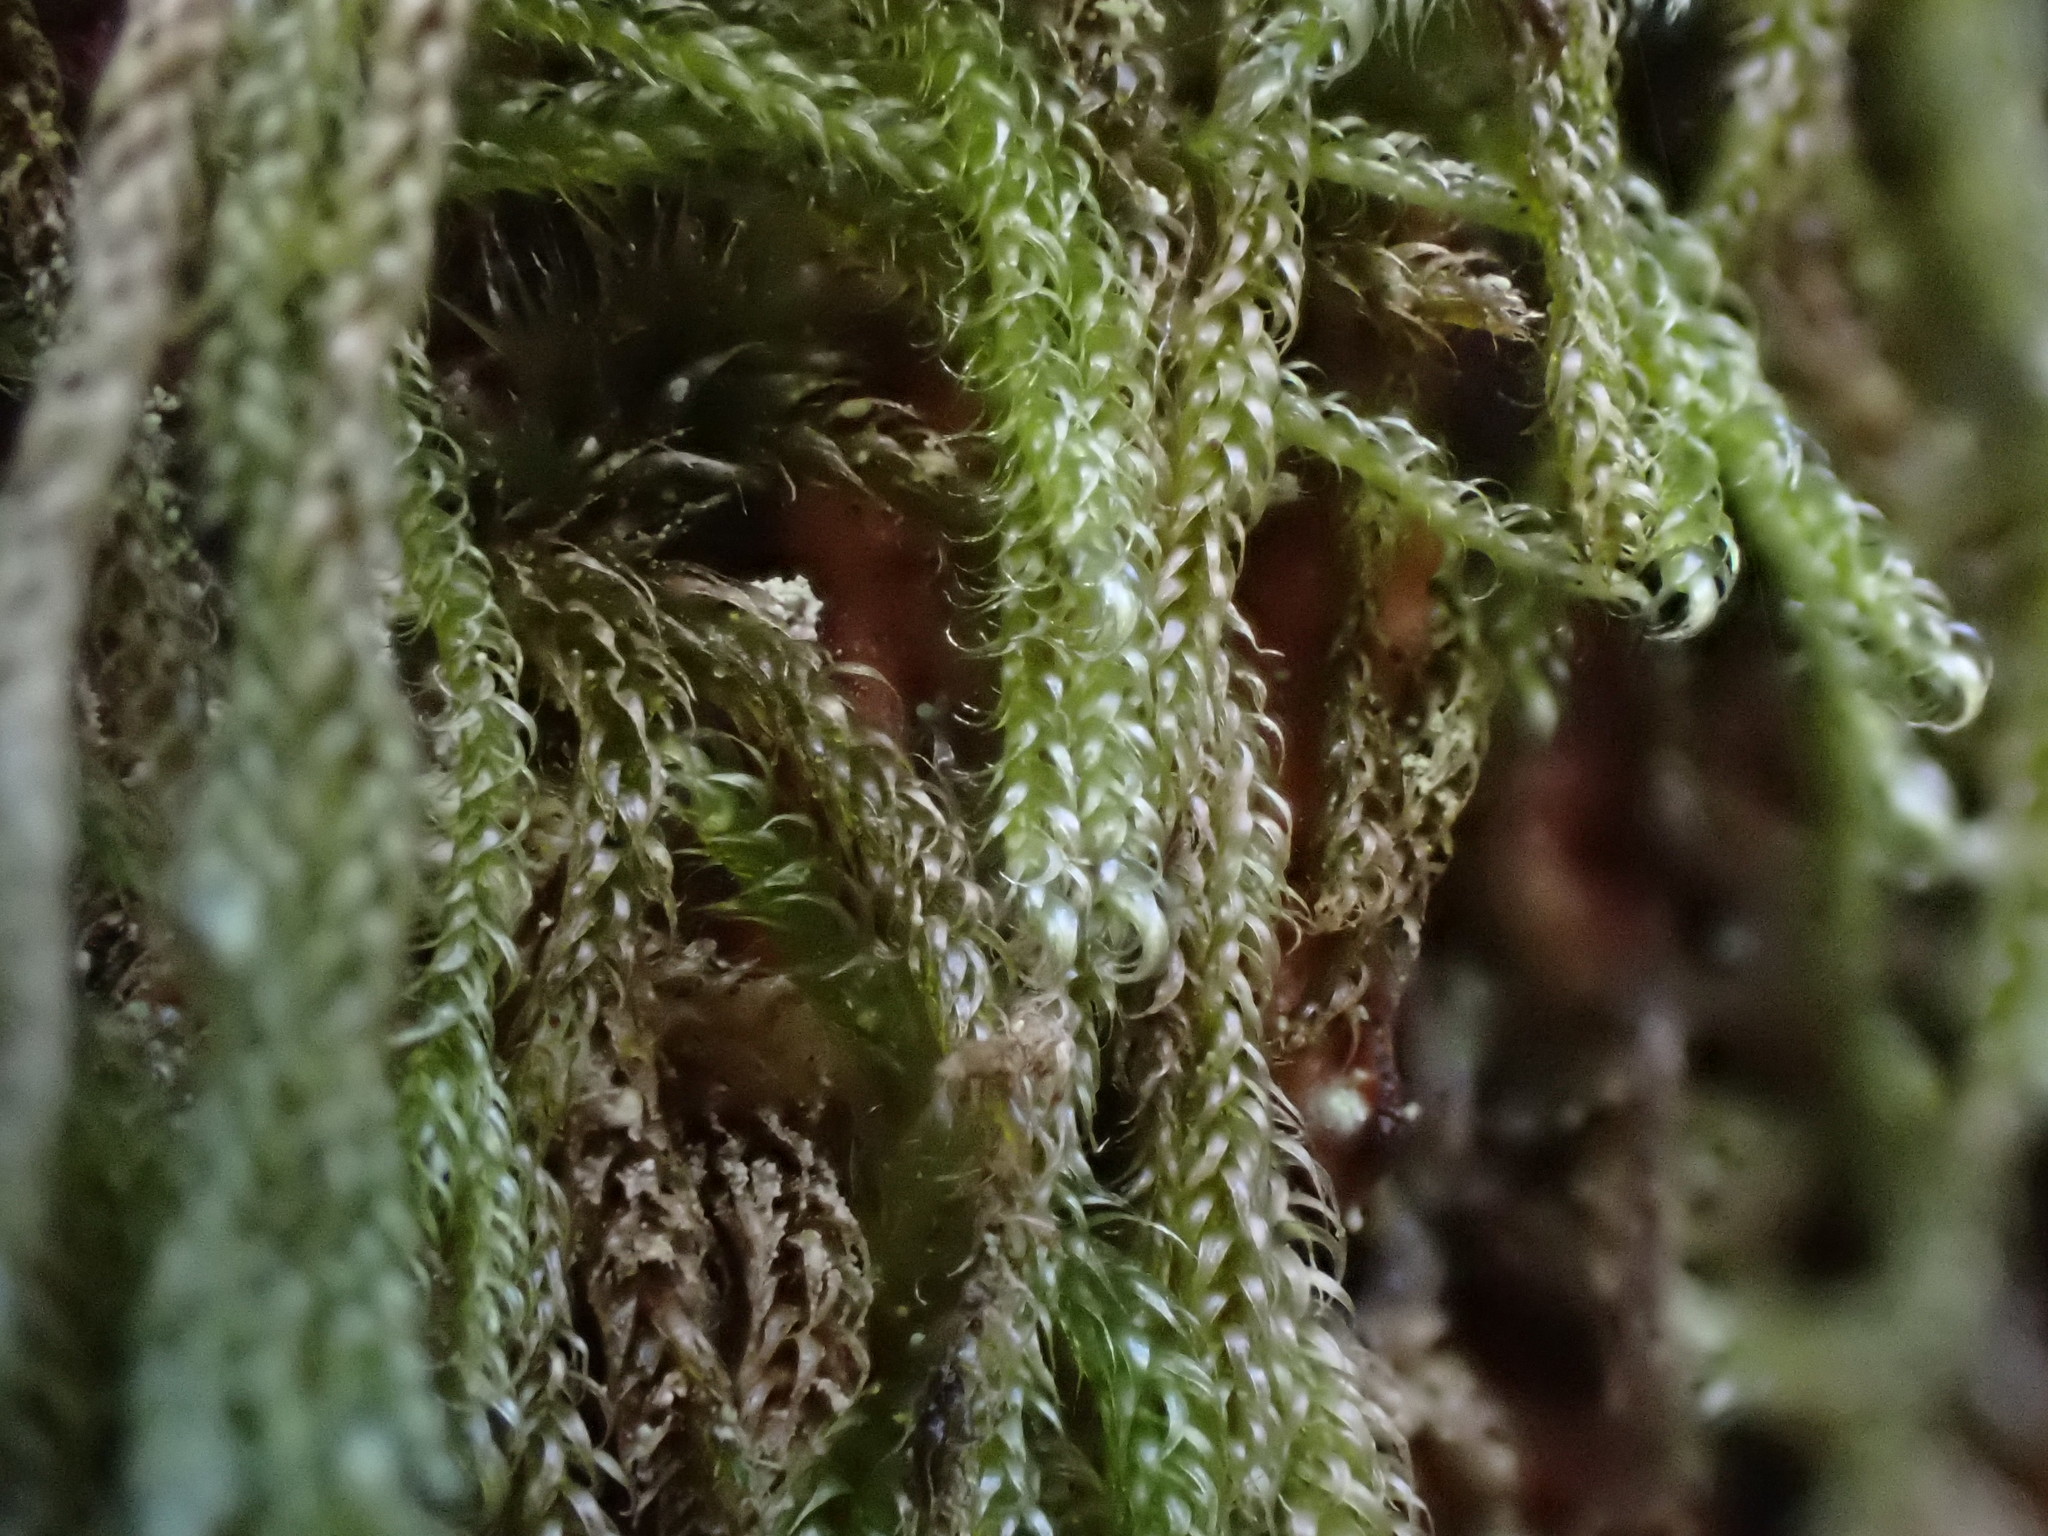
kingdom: Plantae
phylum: Bryophyta
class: Bryopsida
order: Hypnales
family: Pylaisiadelphaceae
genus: Trochophyllohypnum
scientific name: Trochophyllohypnum circinale
